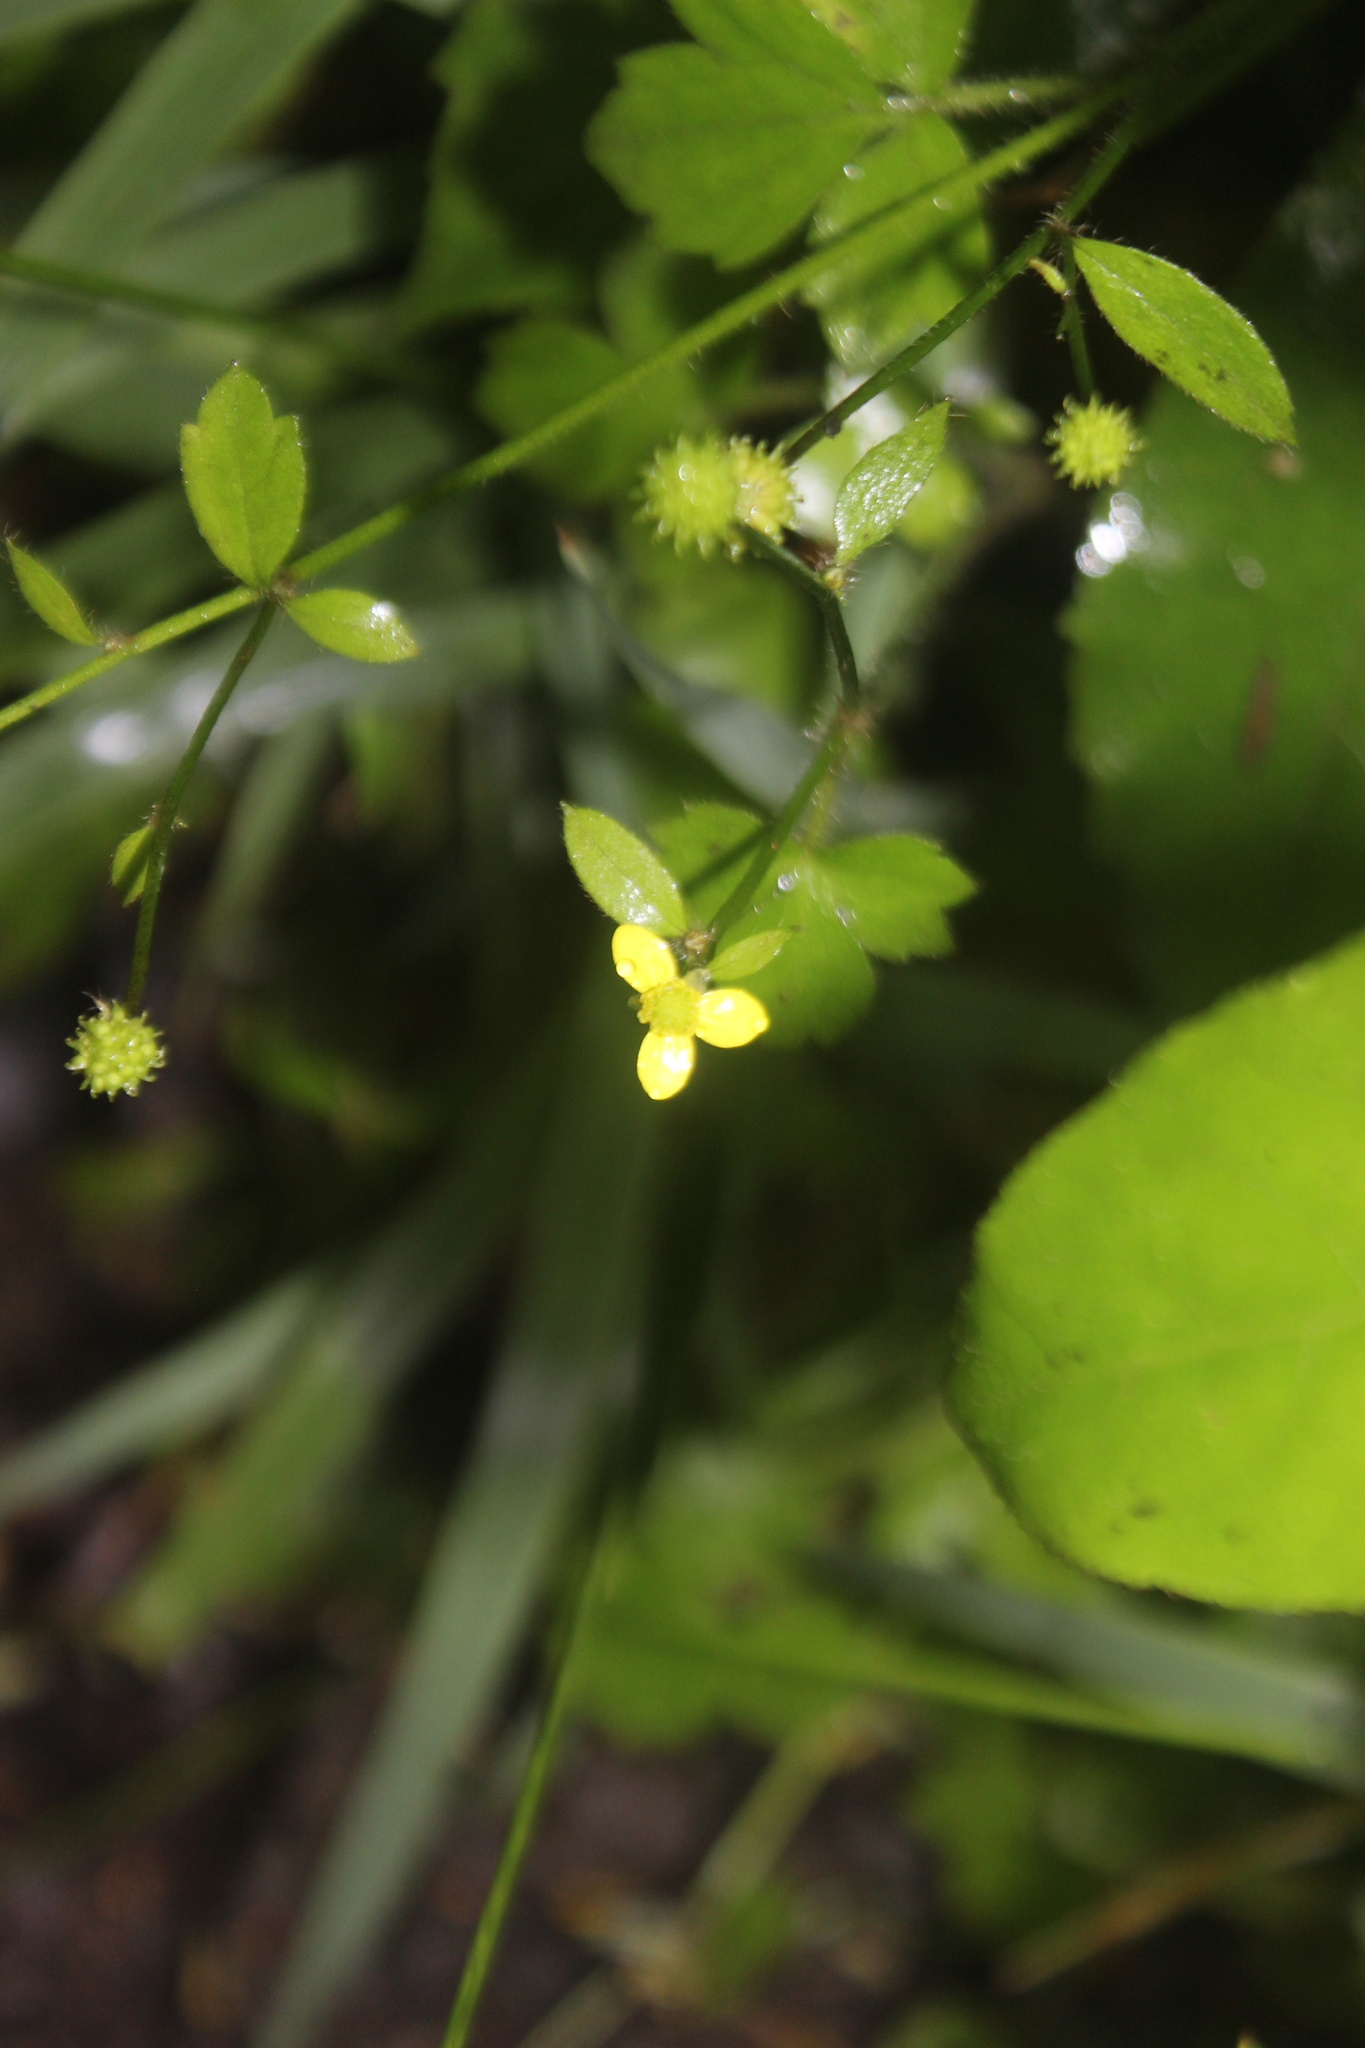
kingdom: Plantae
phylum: Tracheophyta
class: Magnoliopsida
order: Ranunculales
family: Ranunculaceae
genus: Ranunculus
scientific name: Ranunculus reflexus
